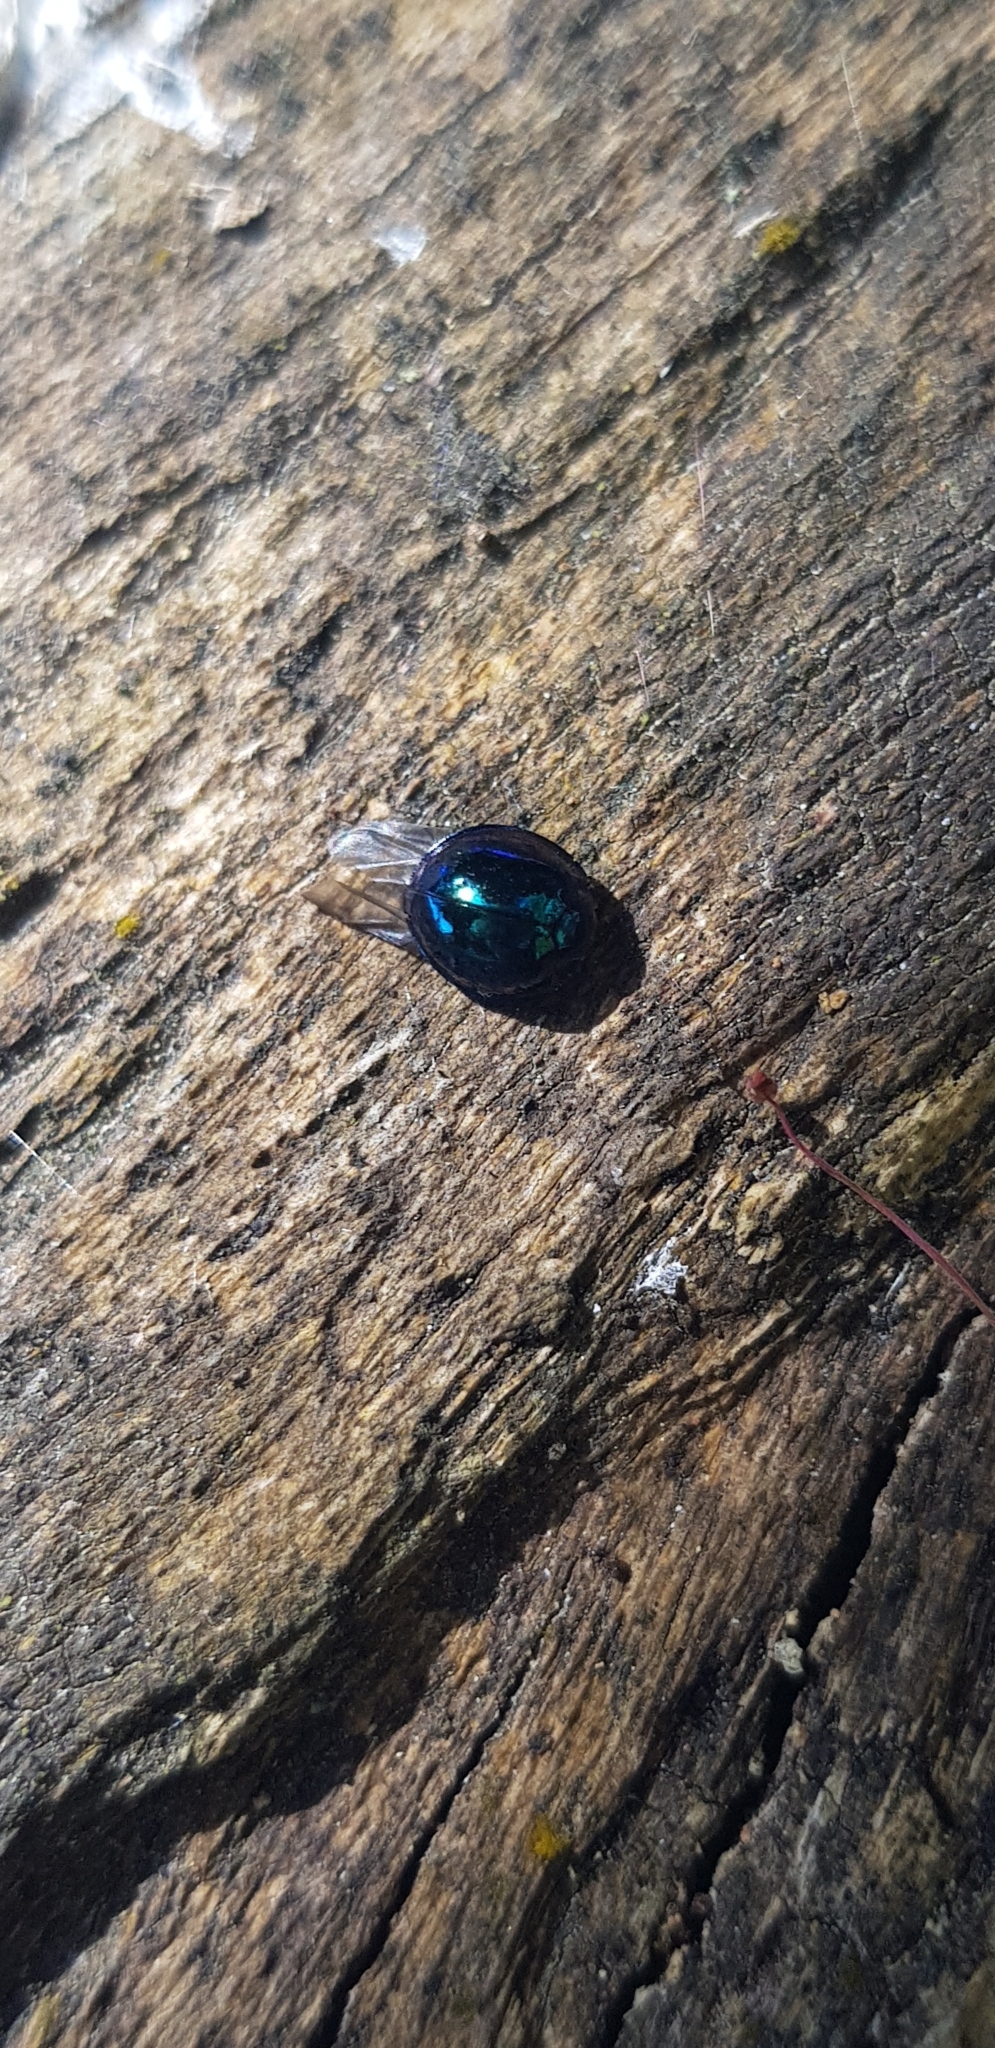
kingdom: Animalia
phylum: Arthropoda
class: Insecta
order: Coleoptera
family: Coccinellidae
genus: Halmus
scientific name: Halmus chalybeus
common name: Steel blue ladybird beetle
